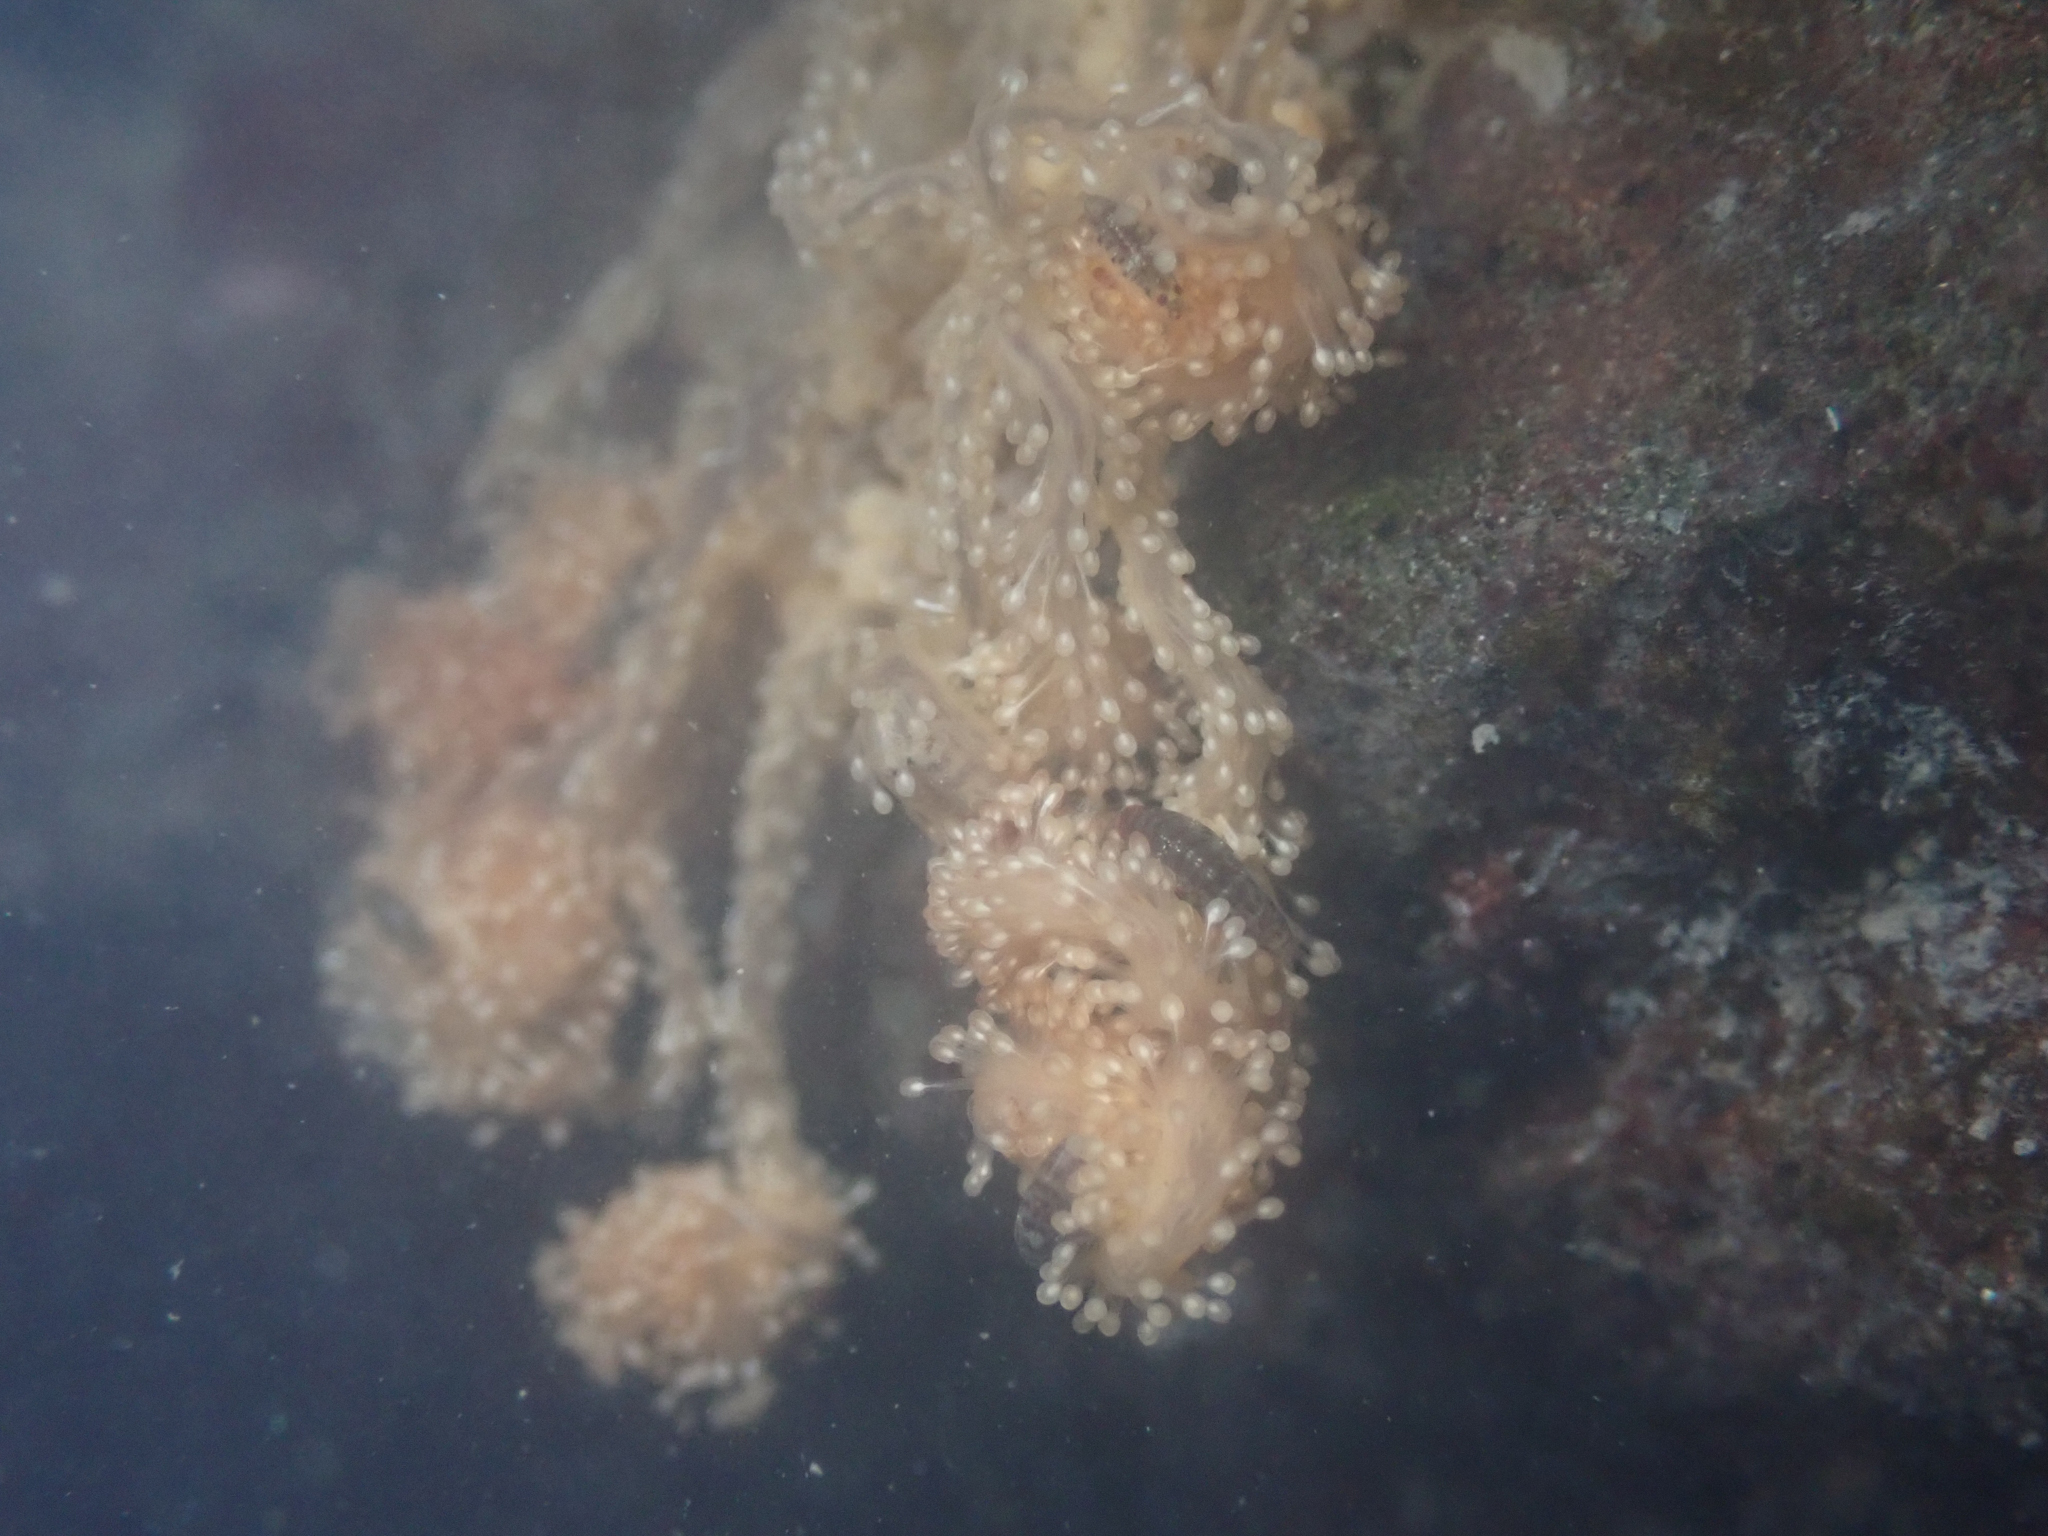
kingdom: Animalia
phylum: Cnidaria
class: Hydrozoa
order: Anthoathecata
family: Candelabridae
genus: Candelabrum
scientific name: Candelabrum fritchmanii
